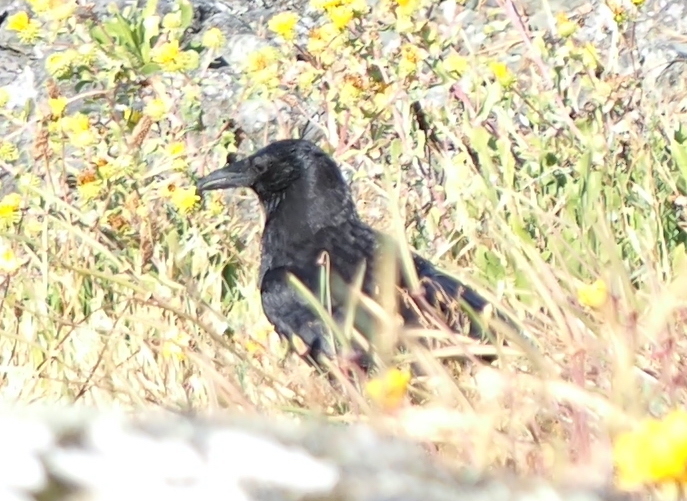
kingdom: Animalia
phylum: Chordata
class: Aves
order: Passeriformes
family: Corvidae
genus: Corvus
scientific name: Corvus brachyrhynchos
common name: American crow
